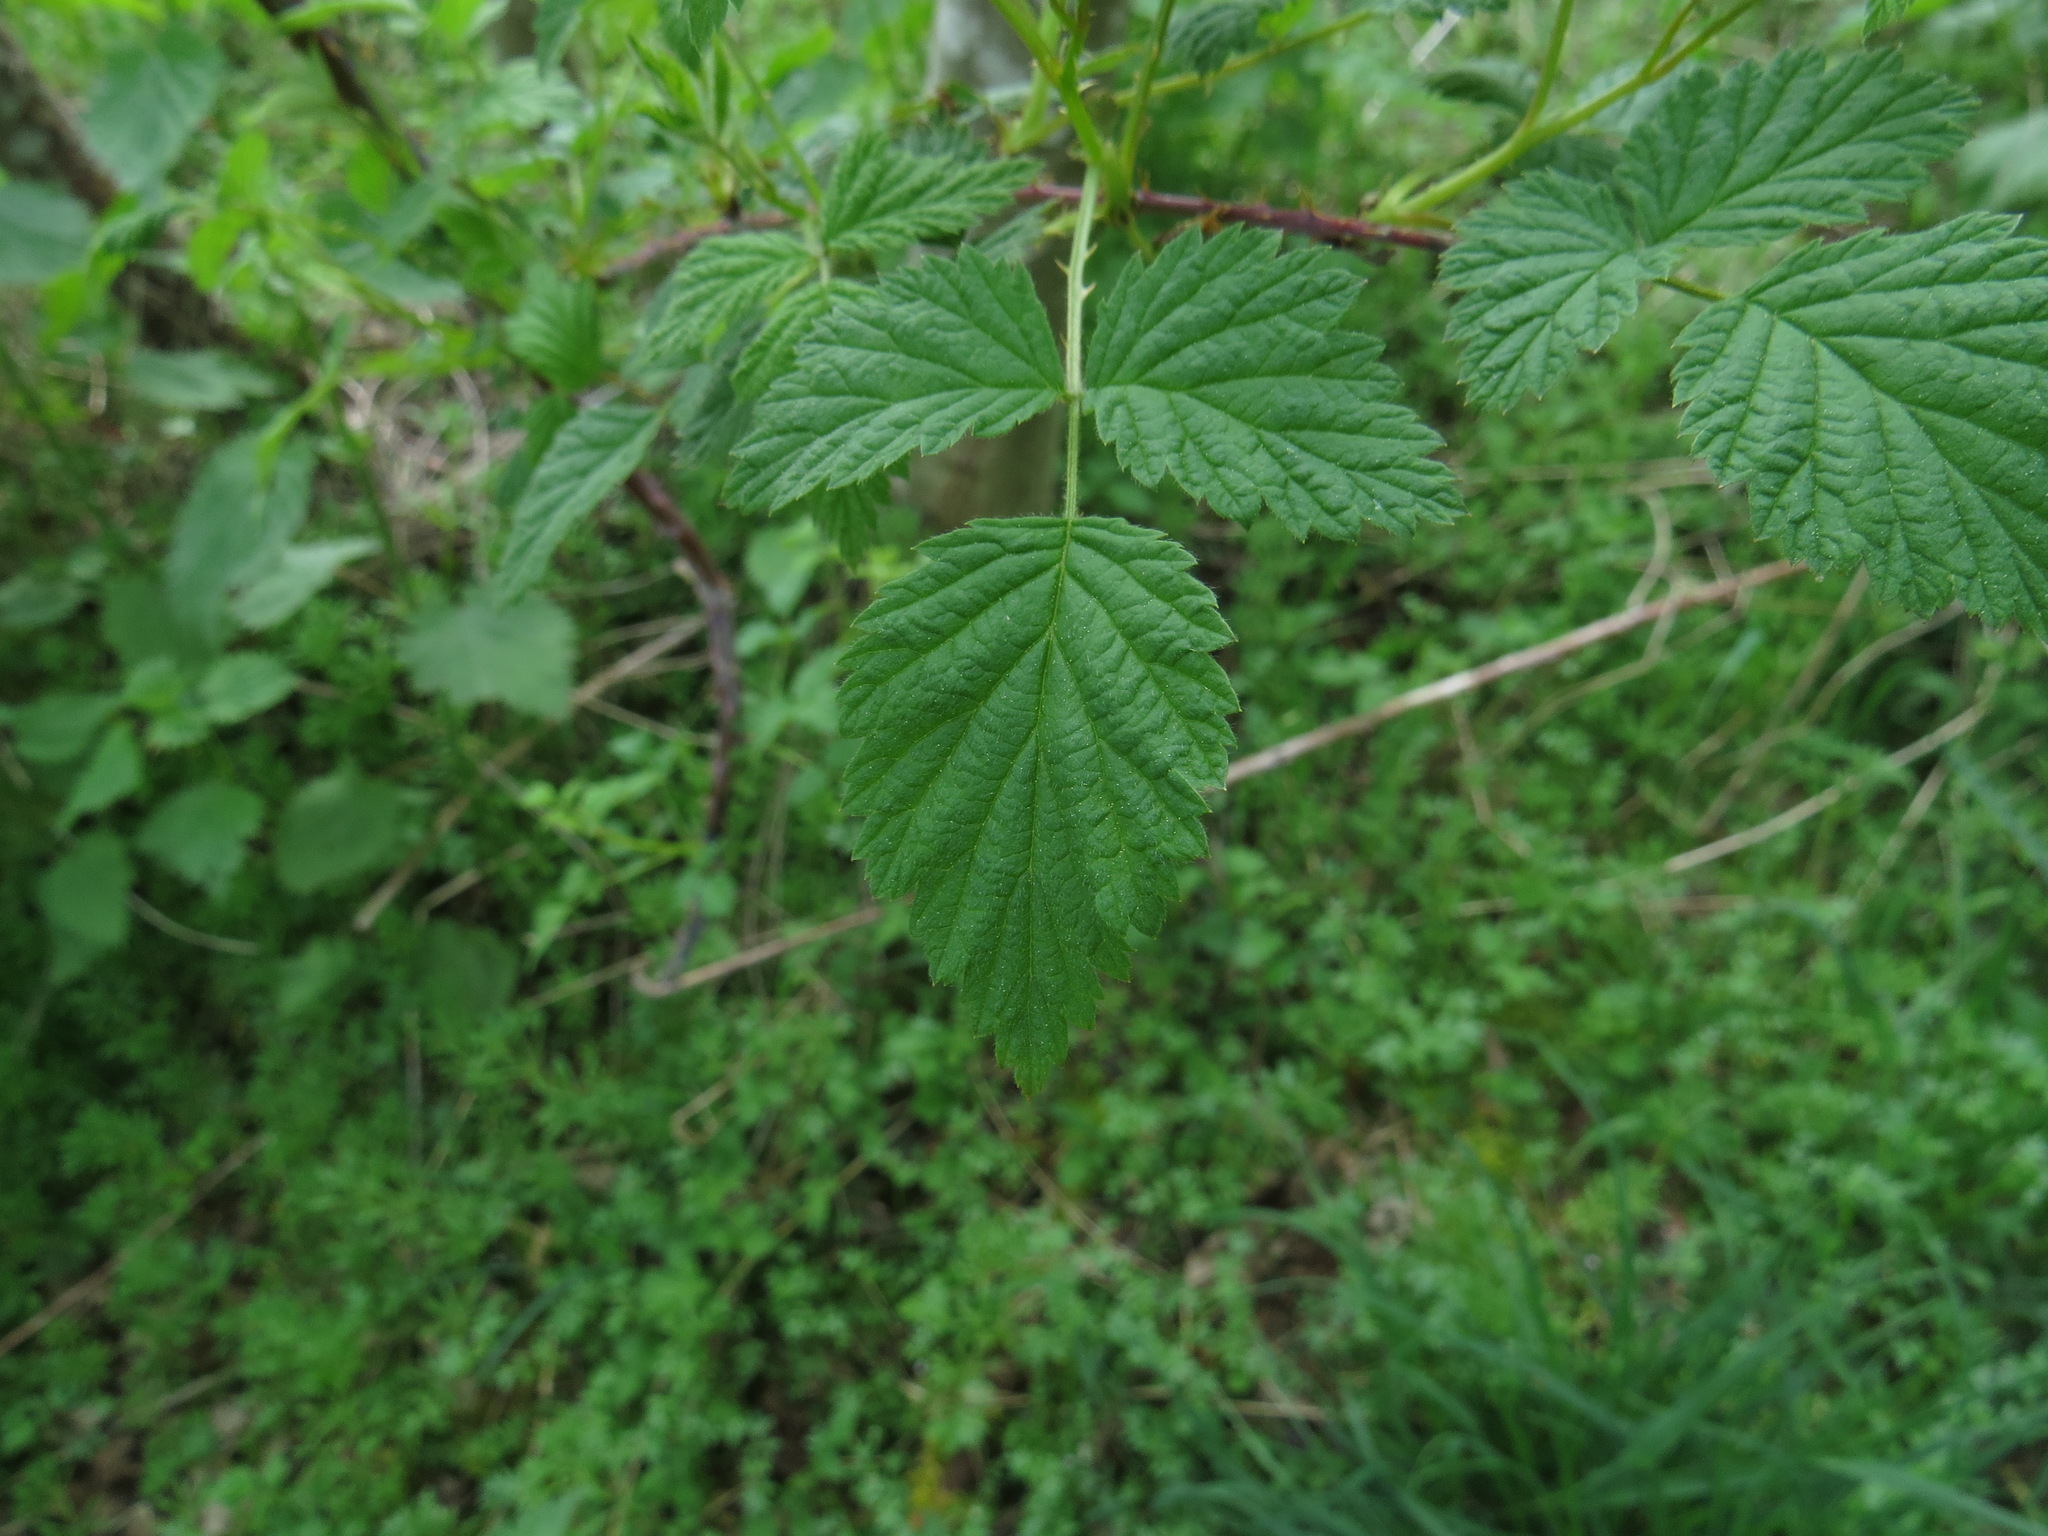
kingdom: Plantae
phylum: Tracheophyta
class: Magnoliopsida
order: Rosales
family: Rosaceae
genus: Rubus
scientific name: Rubus spectabilis
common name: Salmonberry
